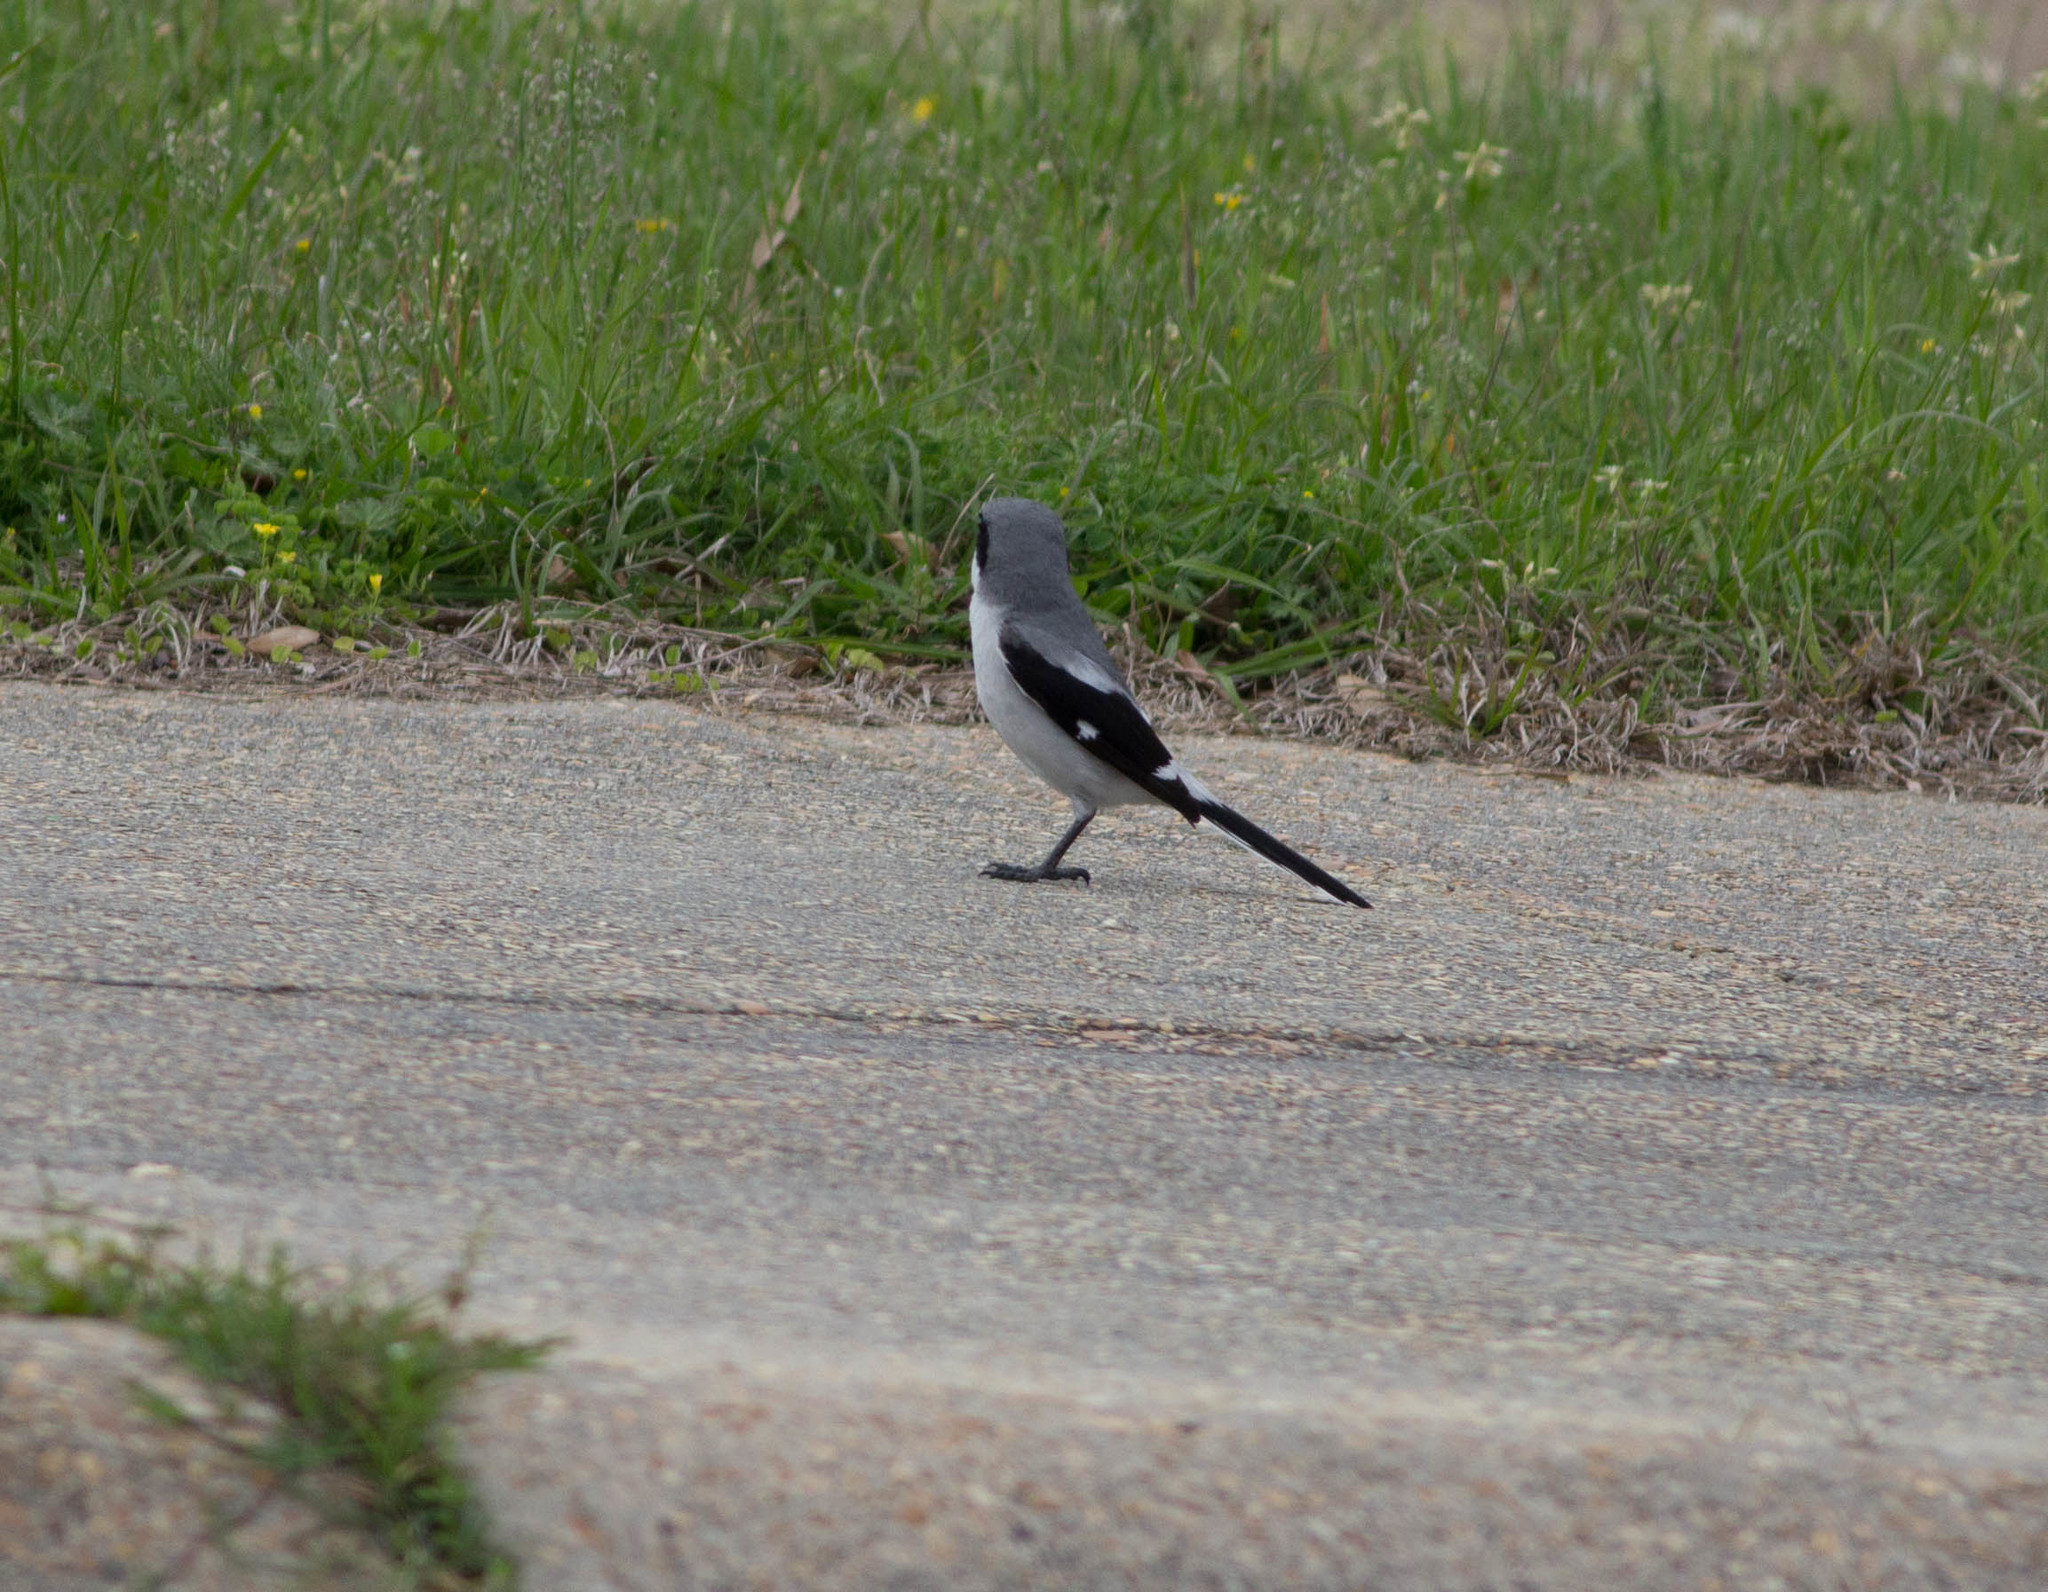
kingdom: Animalia
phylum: Chordata
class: Aves
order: Passeriformes
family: Laniidae
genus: Lanius
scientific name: Lanius ludovicianus
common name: Loggerhead shrike
